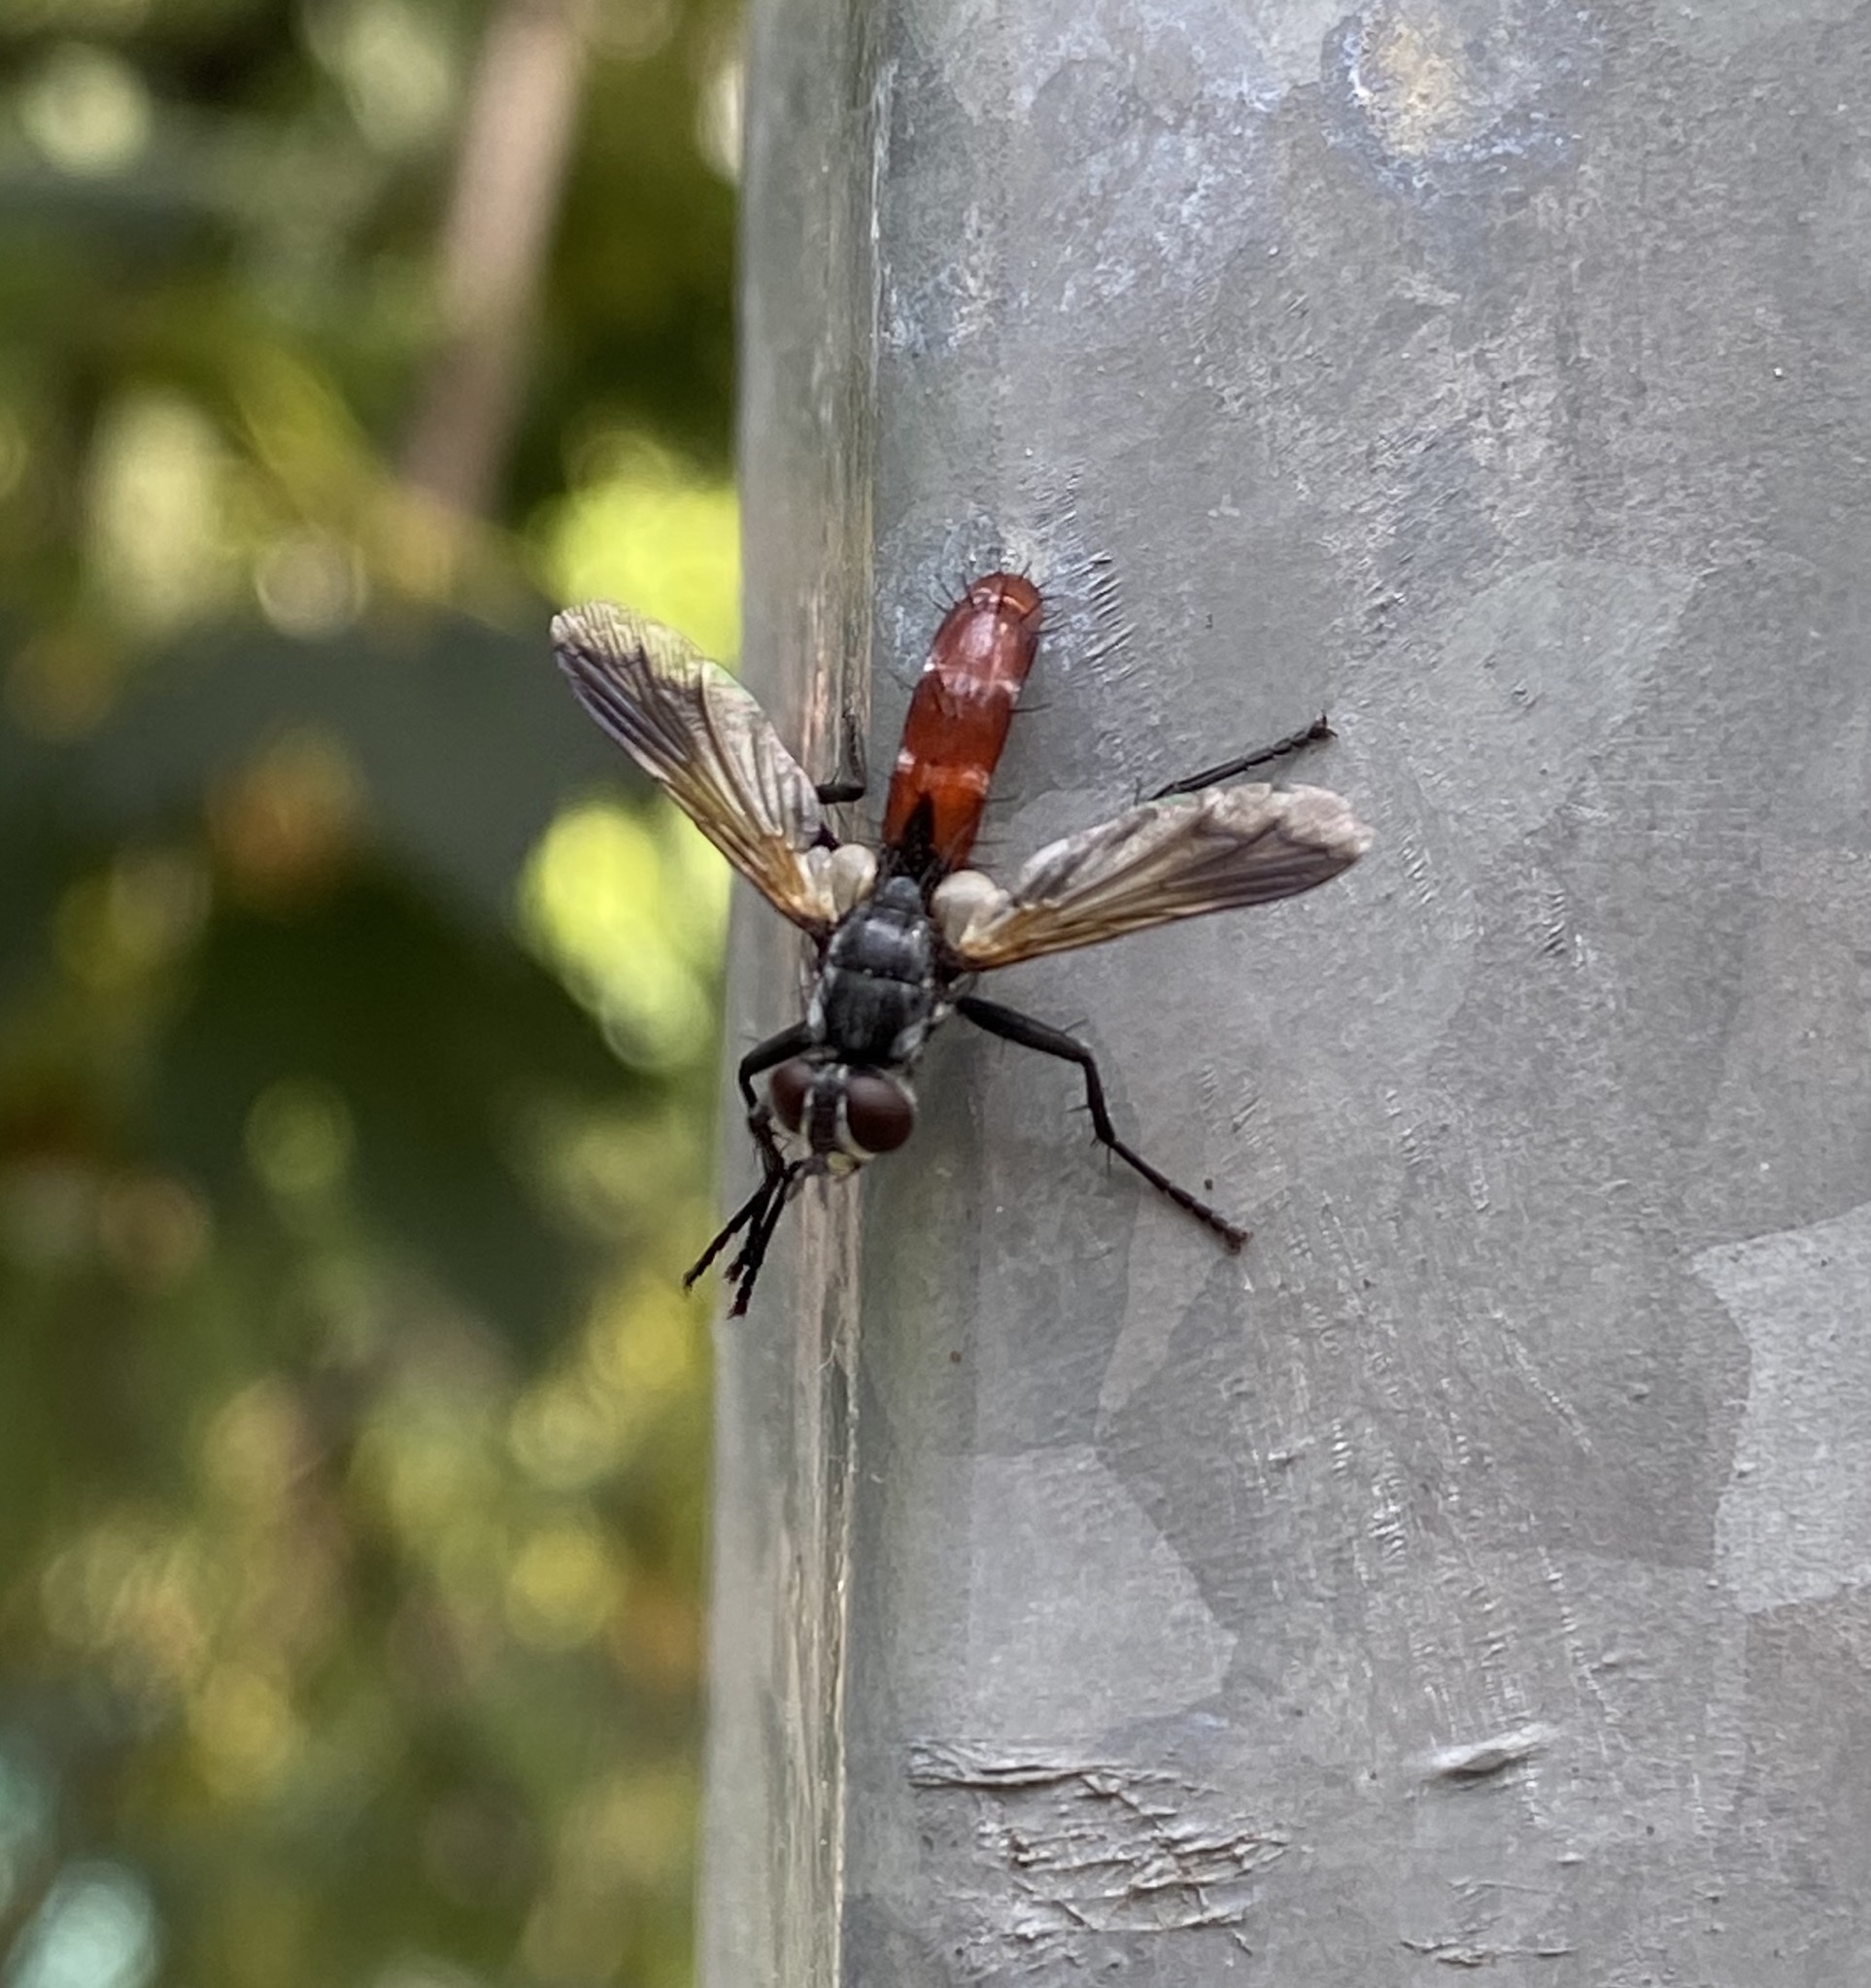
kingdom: Animalia
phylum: Arthropoda
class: Insecta
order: Diptera
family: Tachinidae
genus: Cylindromyia
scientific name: Cylindromyia bicolor
